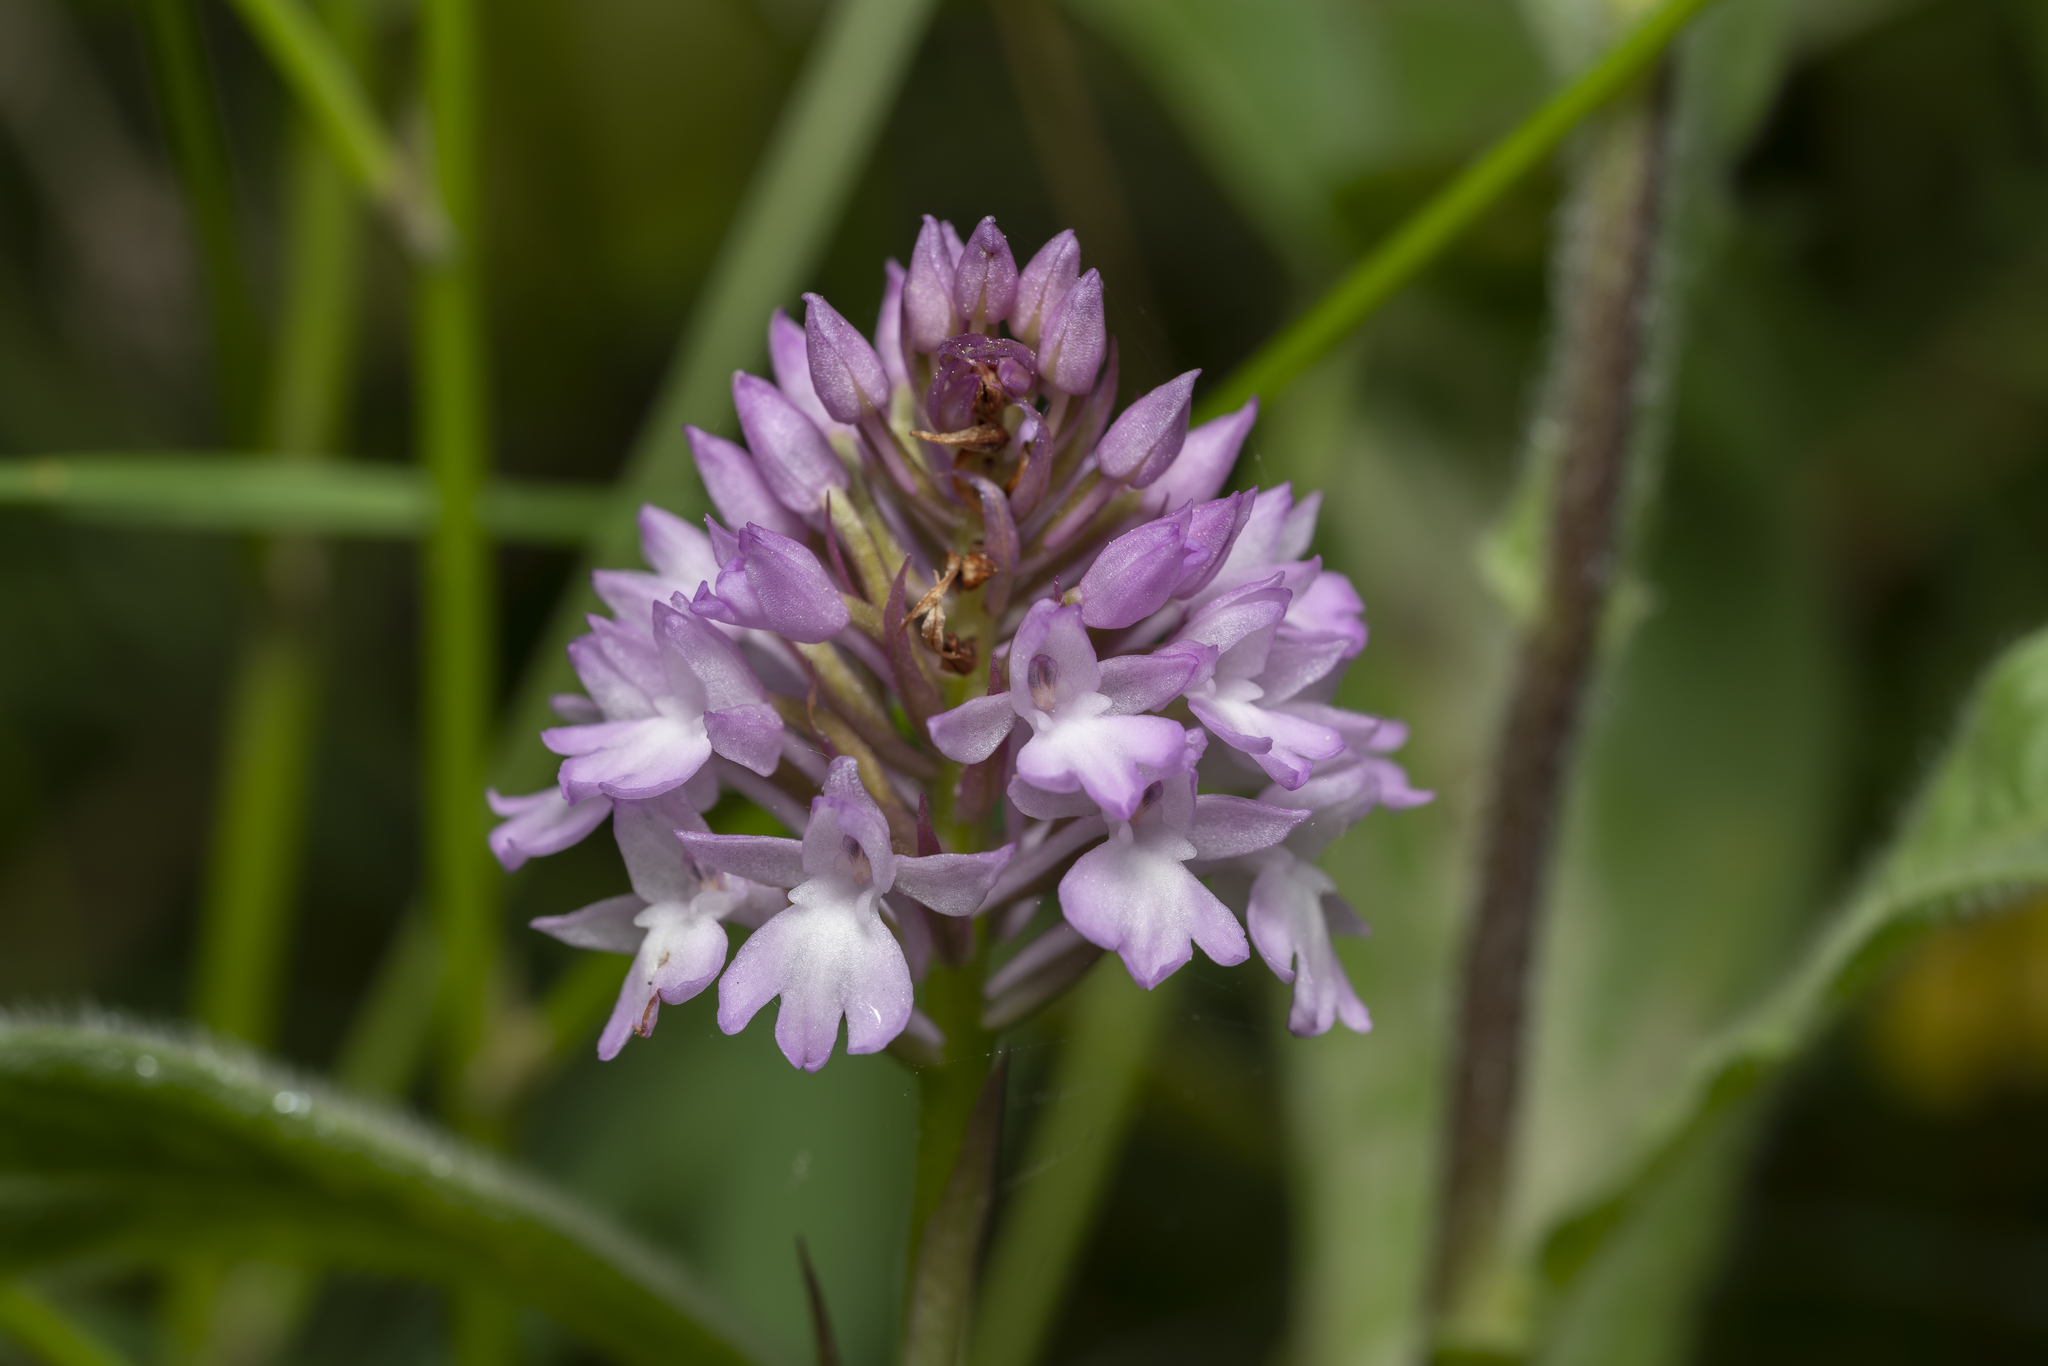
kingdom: Plantae
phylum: Tracheophyta
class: Liliopsida
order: Asparagales
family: Orchidaceae
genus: Anacamptis
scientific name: Anacamptis pyramidalis
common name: Pyramidal orchid
